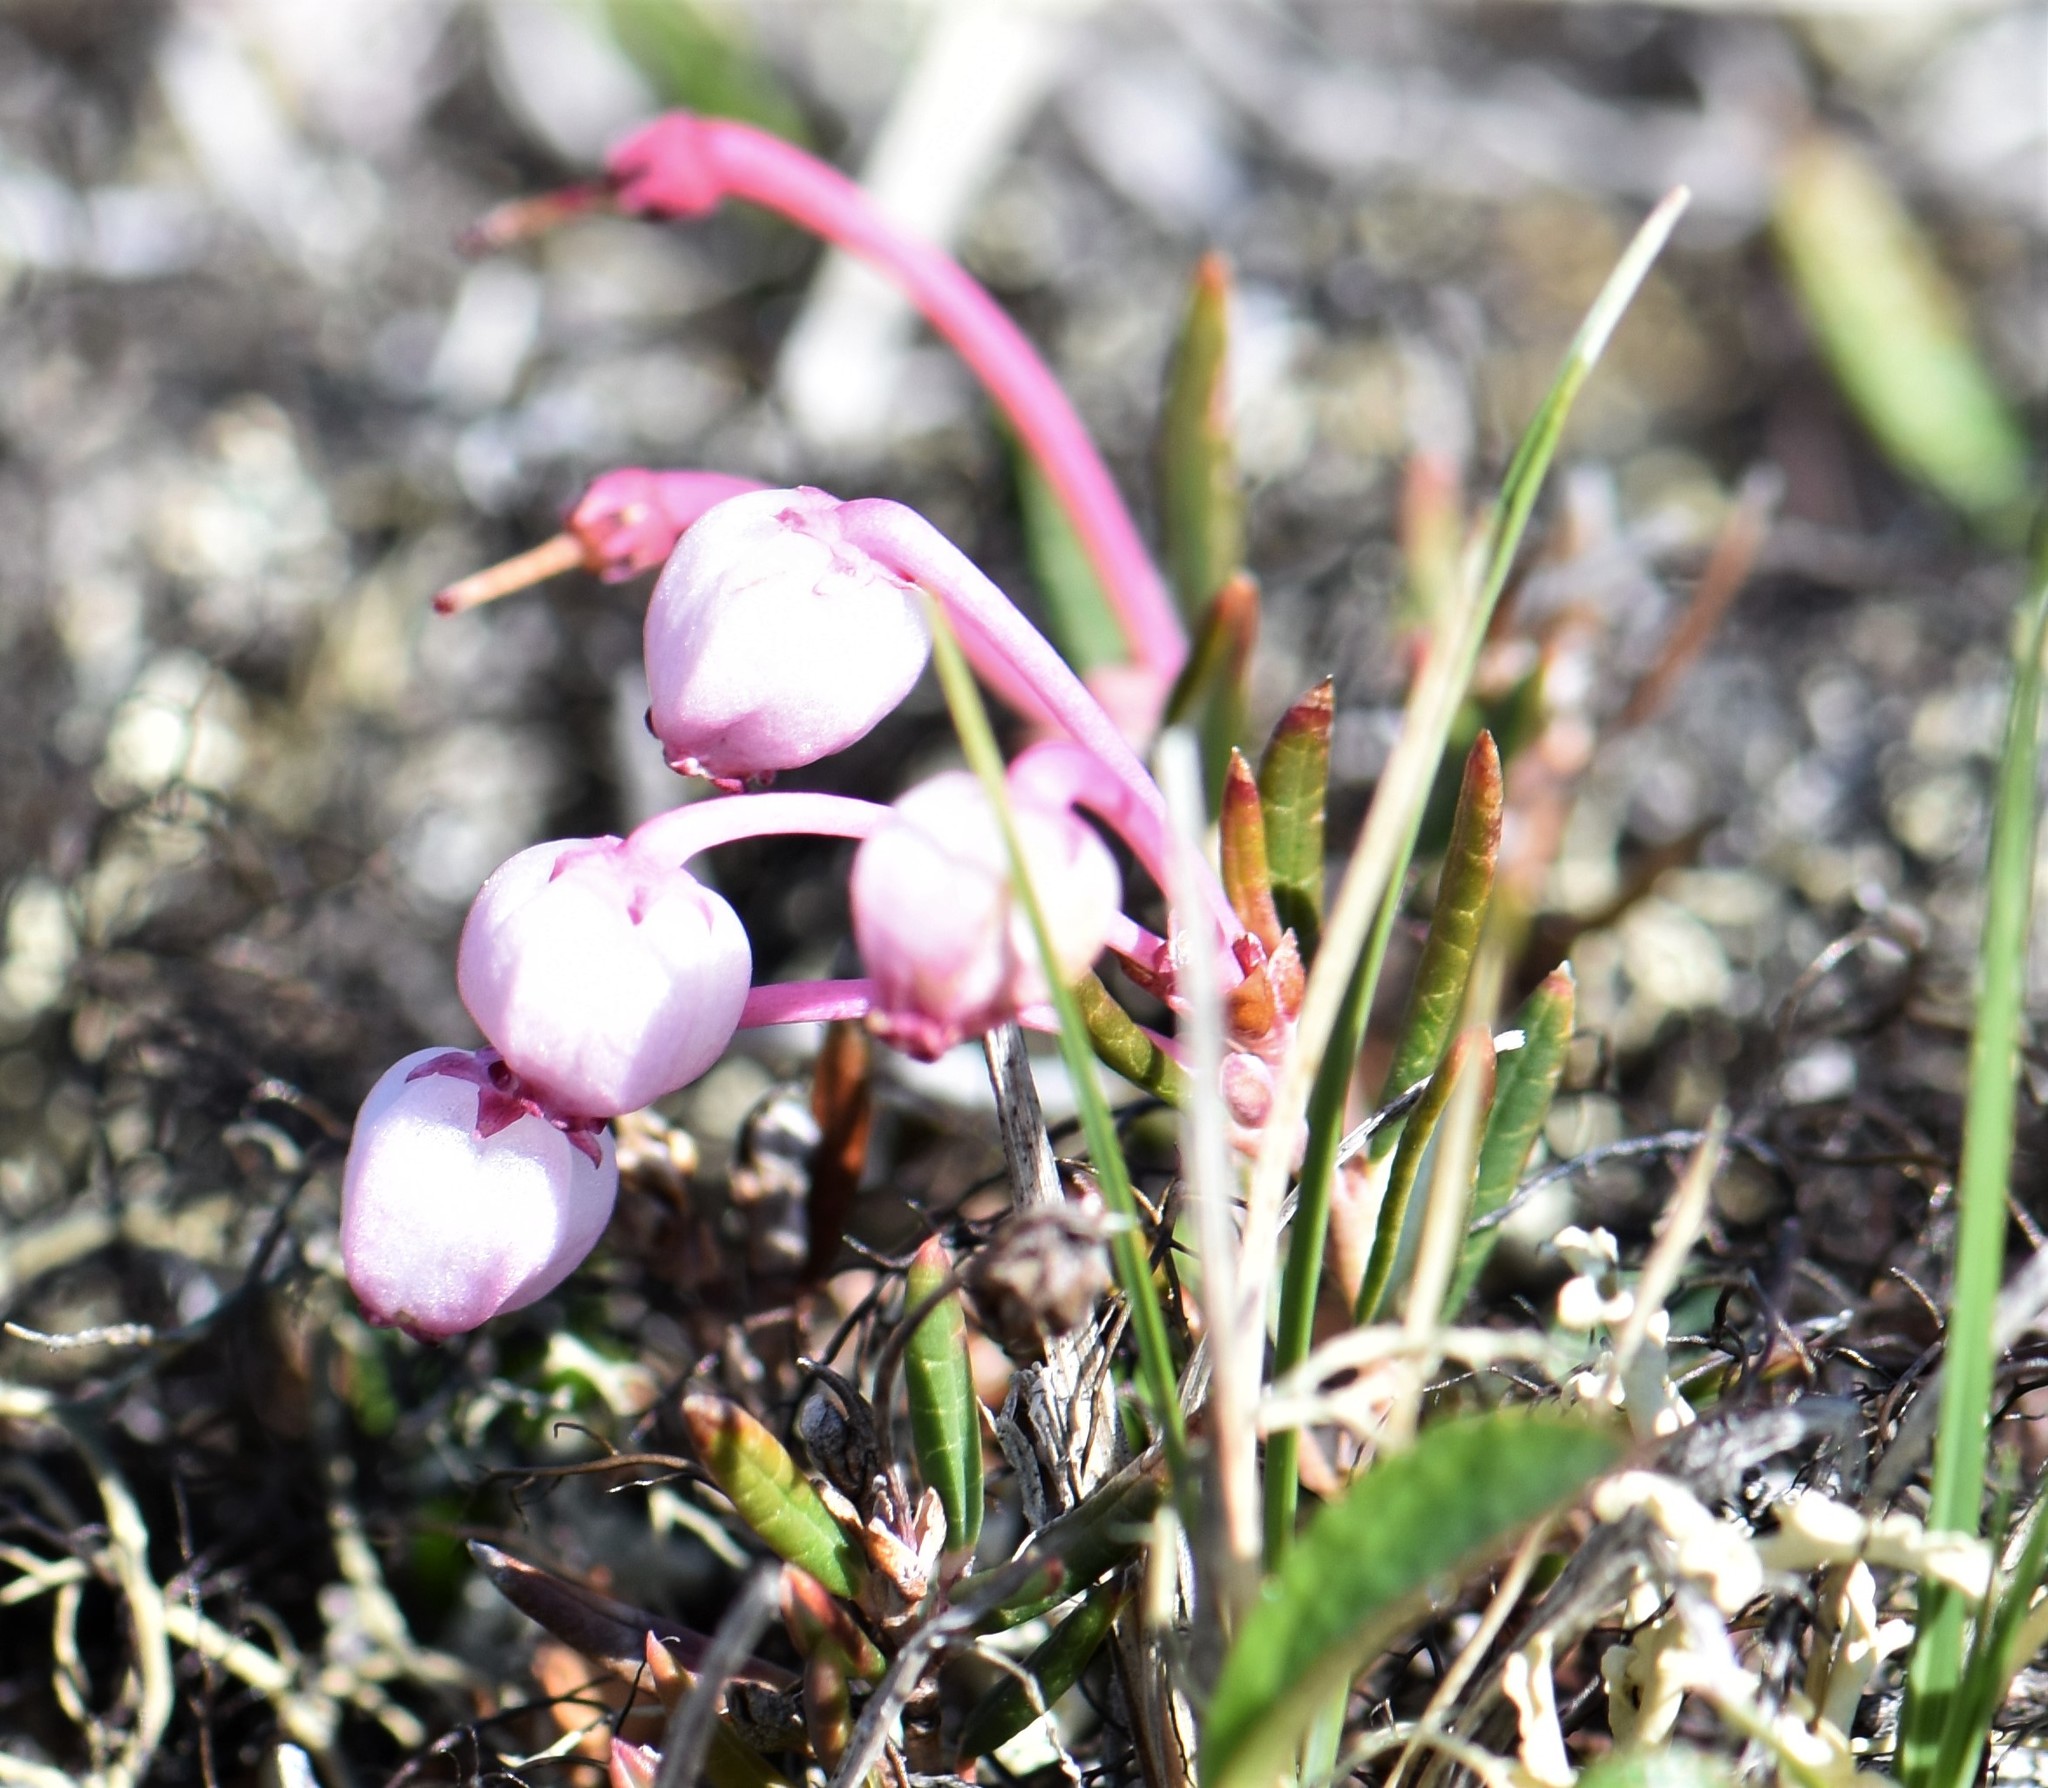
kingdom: Plantae
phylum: Tracheophyta
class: Magnoliopsida
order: Ericales
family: Ericaceae
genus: Andromeda
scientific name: Andromeda polifolia
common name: Bog-rosemary
